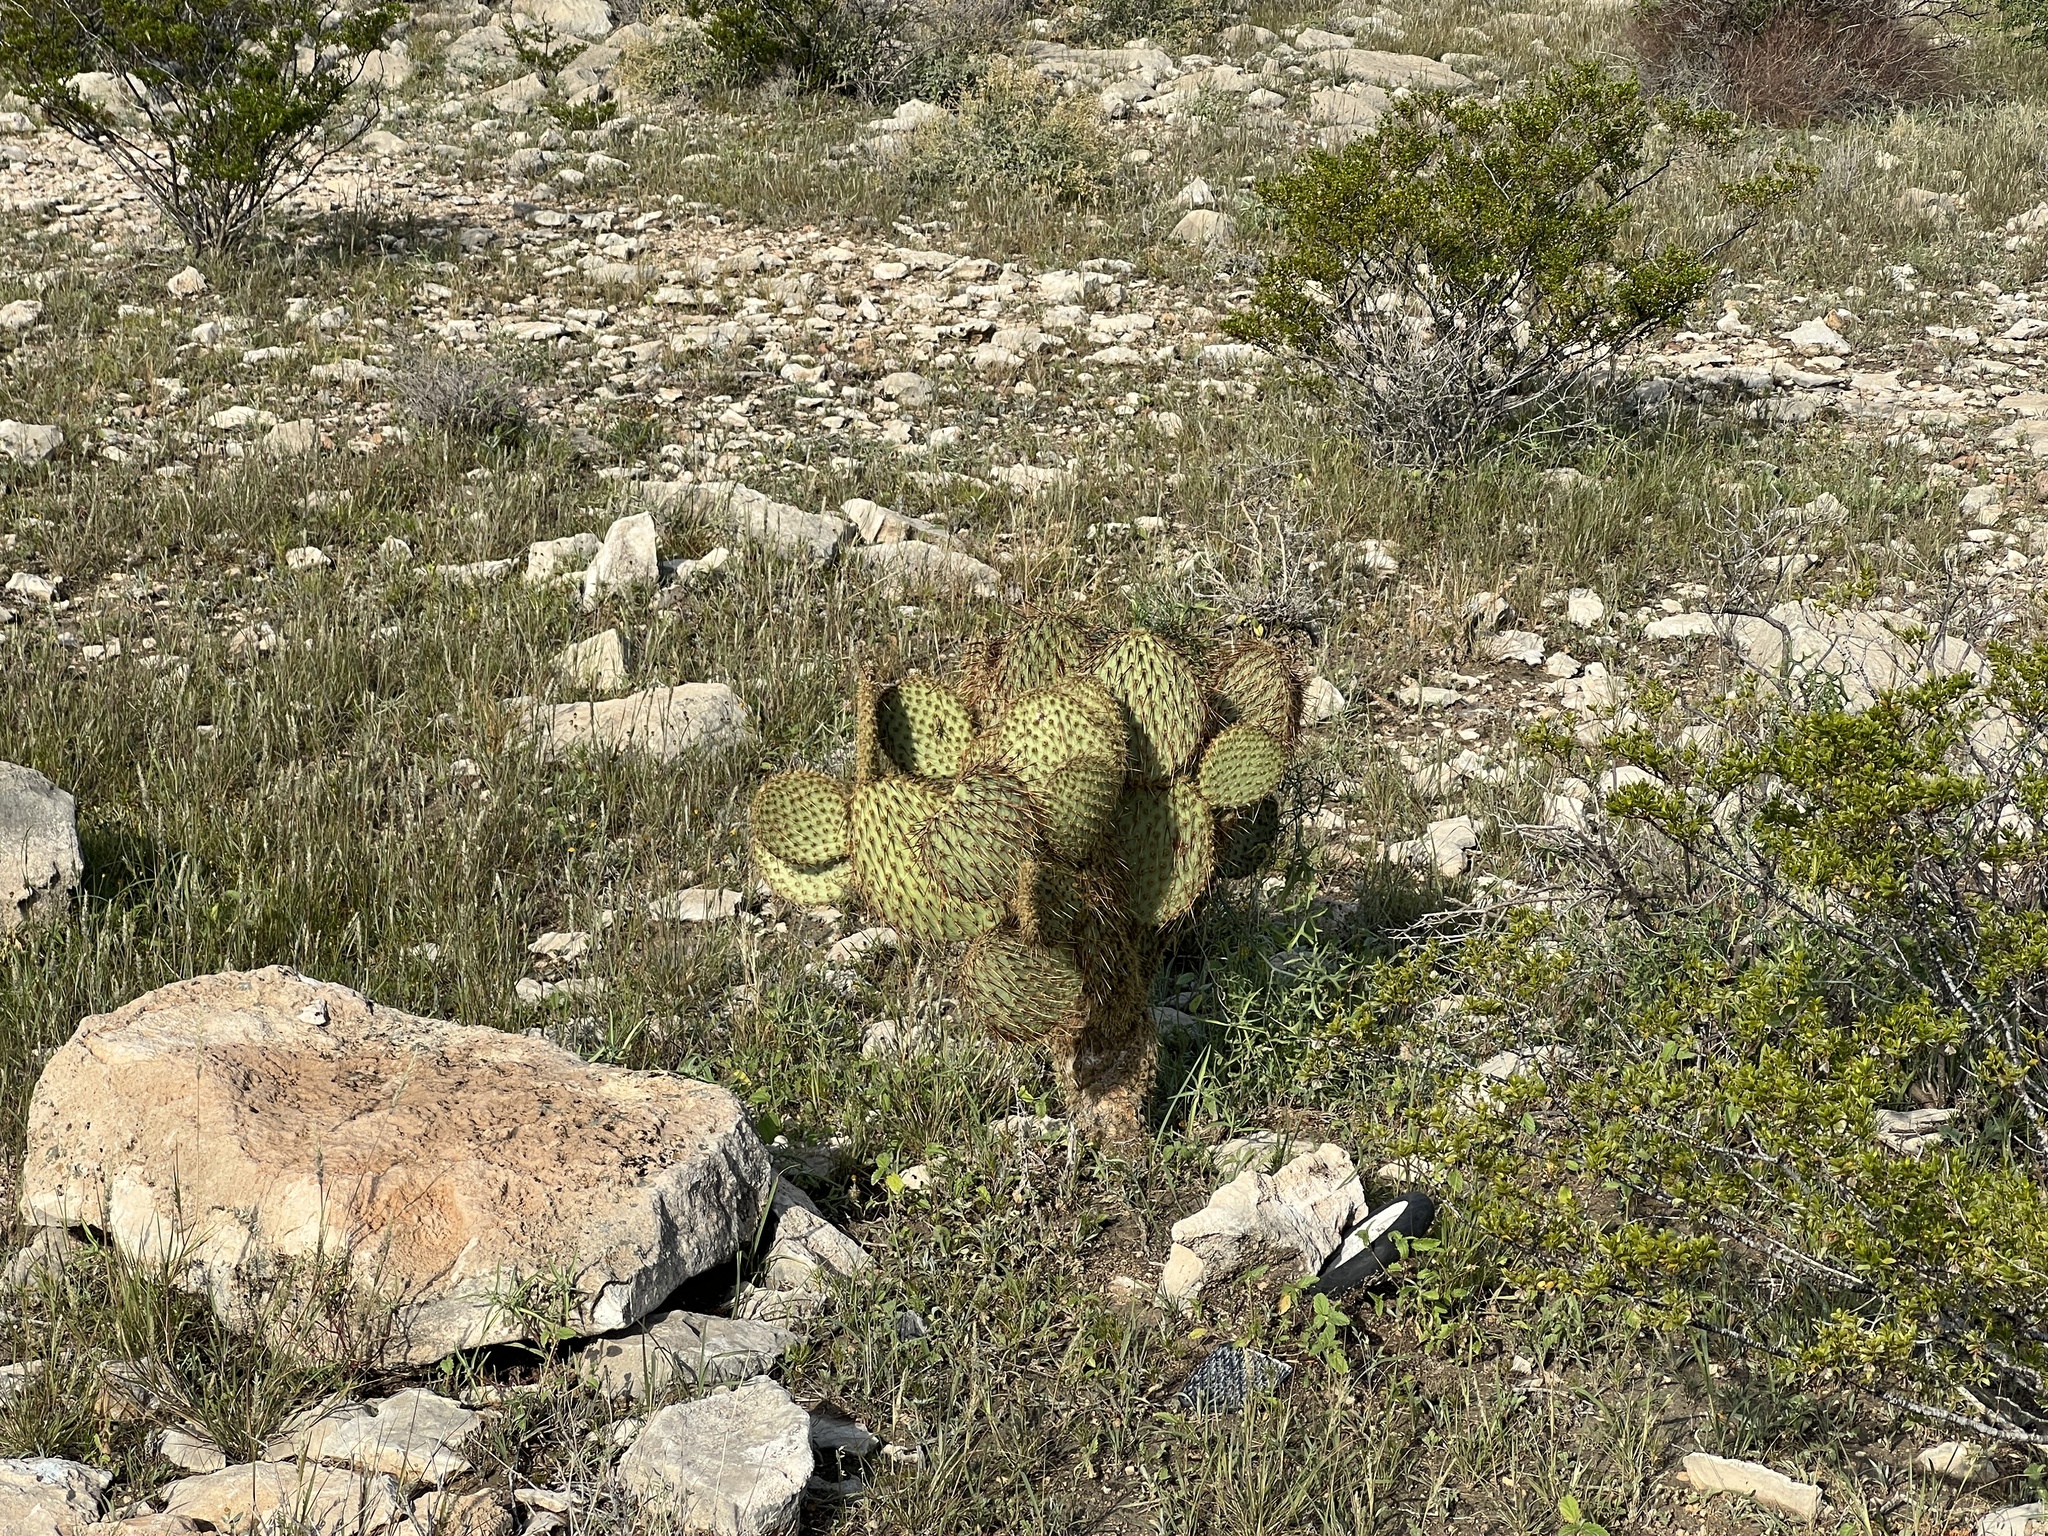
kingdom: Plantae
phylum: Tracheophyta
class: Magnoliopsida
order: Caryophyllales
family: Cactaceae
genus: Opuntia
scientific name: Opuntia strigil
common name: Marble-fruit prickly-pear
